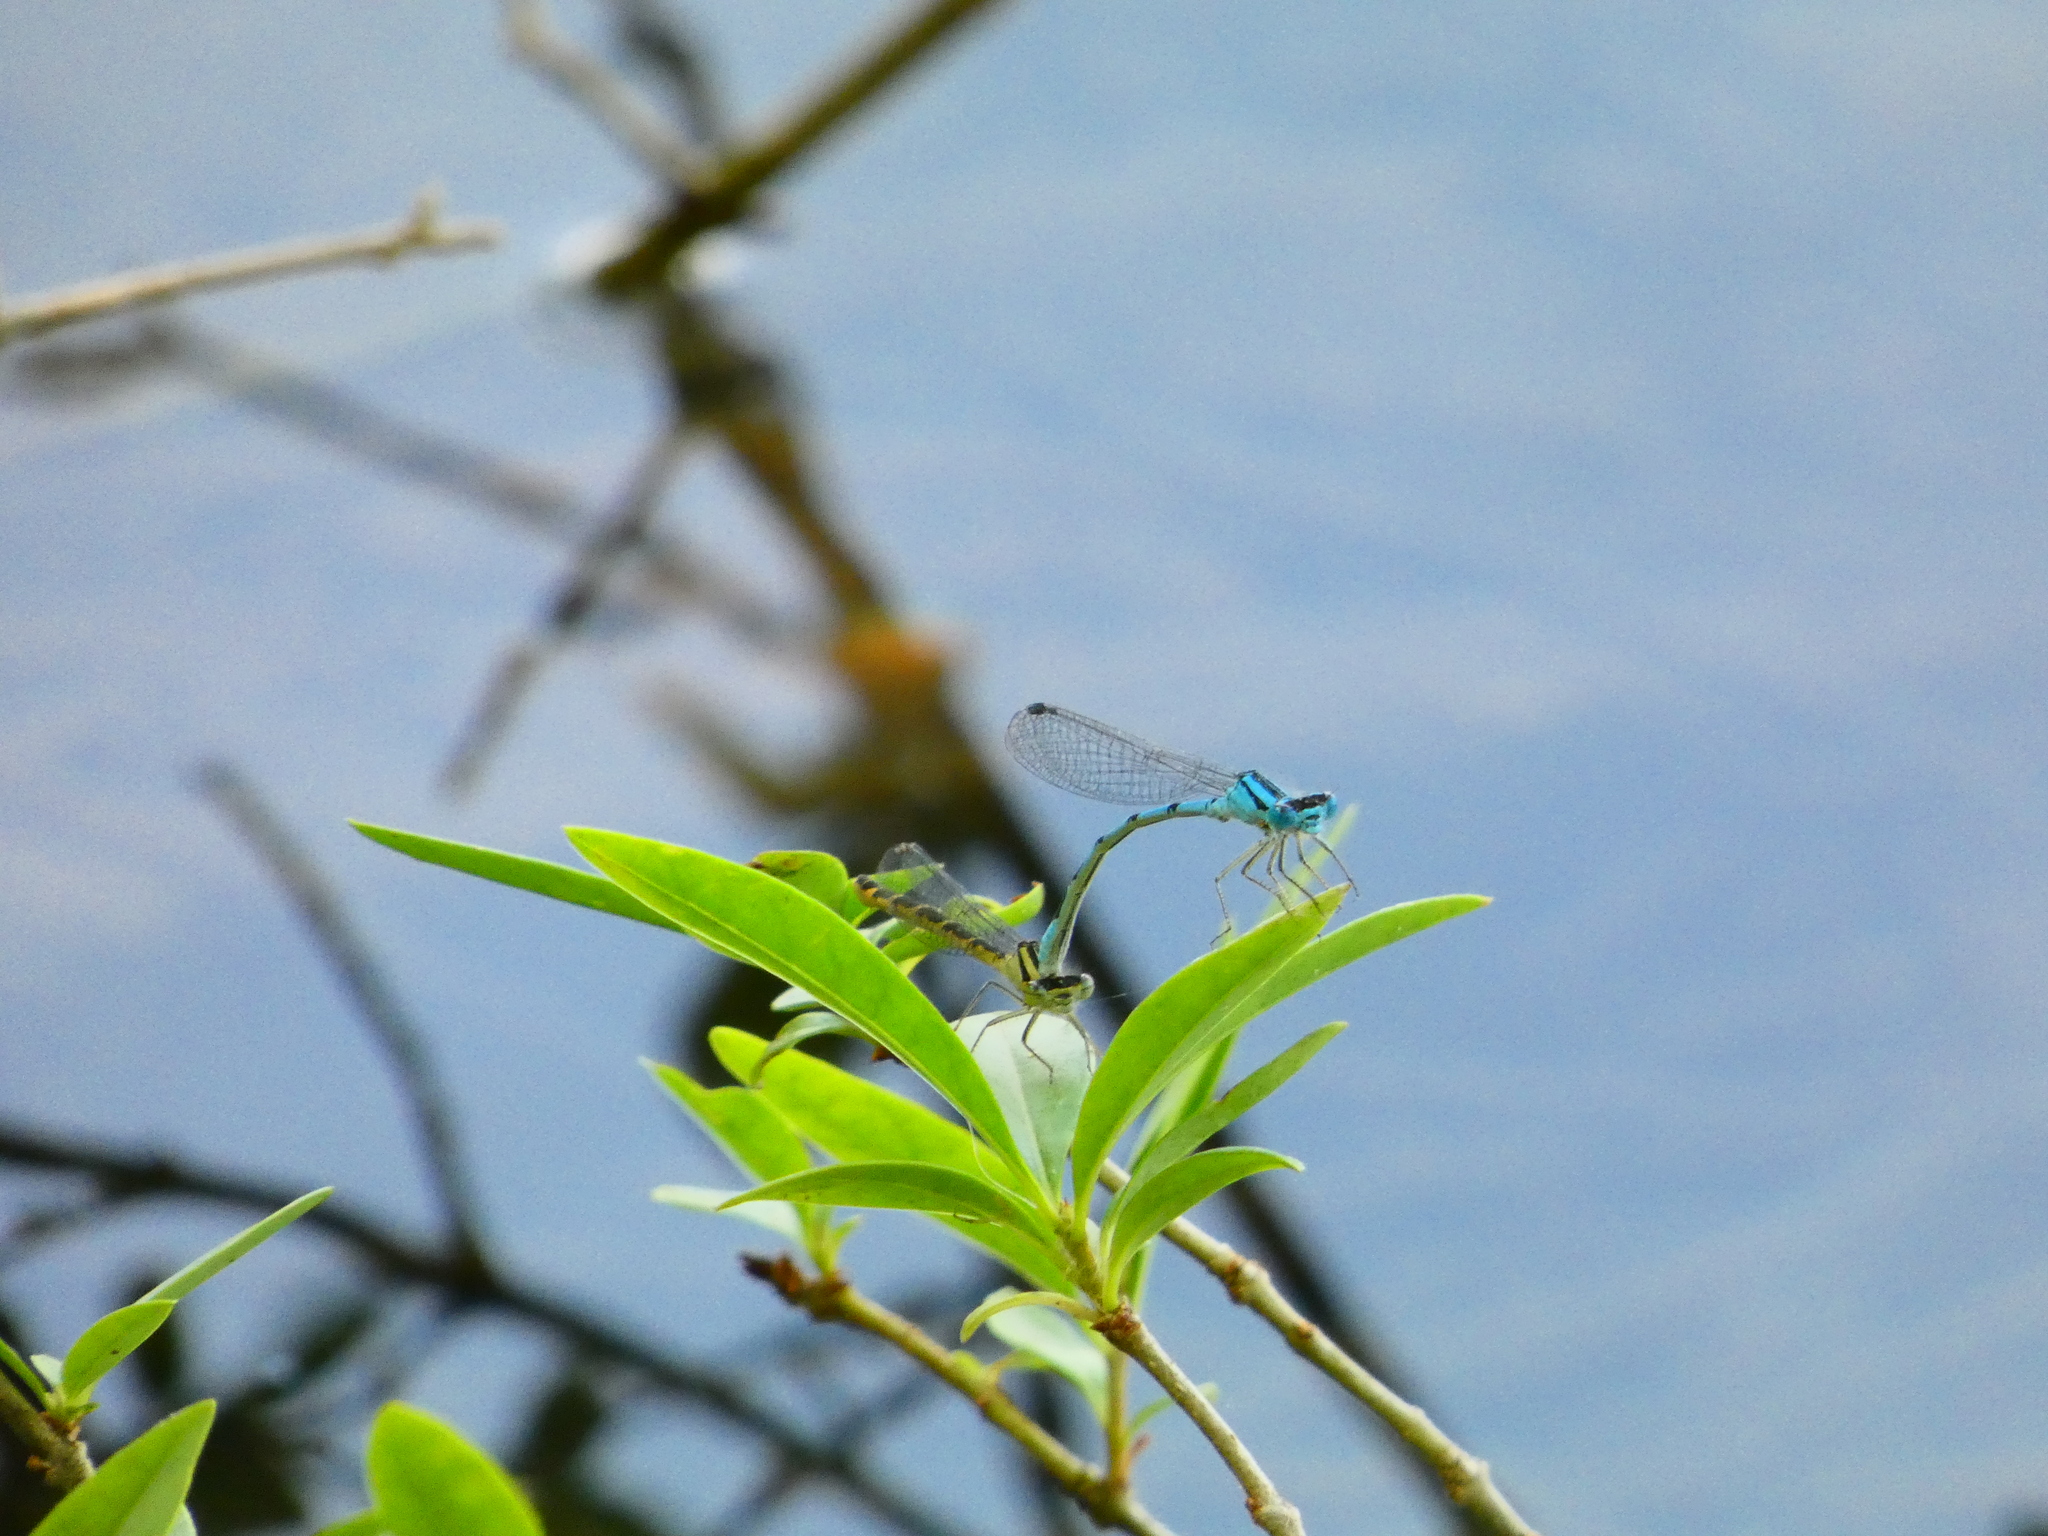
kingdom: Animalia
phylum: Arthropoda
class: Insecta
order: Odonata
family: Coenagrionidae
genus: Enallagma
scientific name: Enallagma cyathigerum
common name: Common blue damselfly
